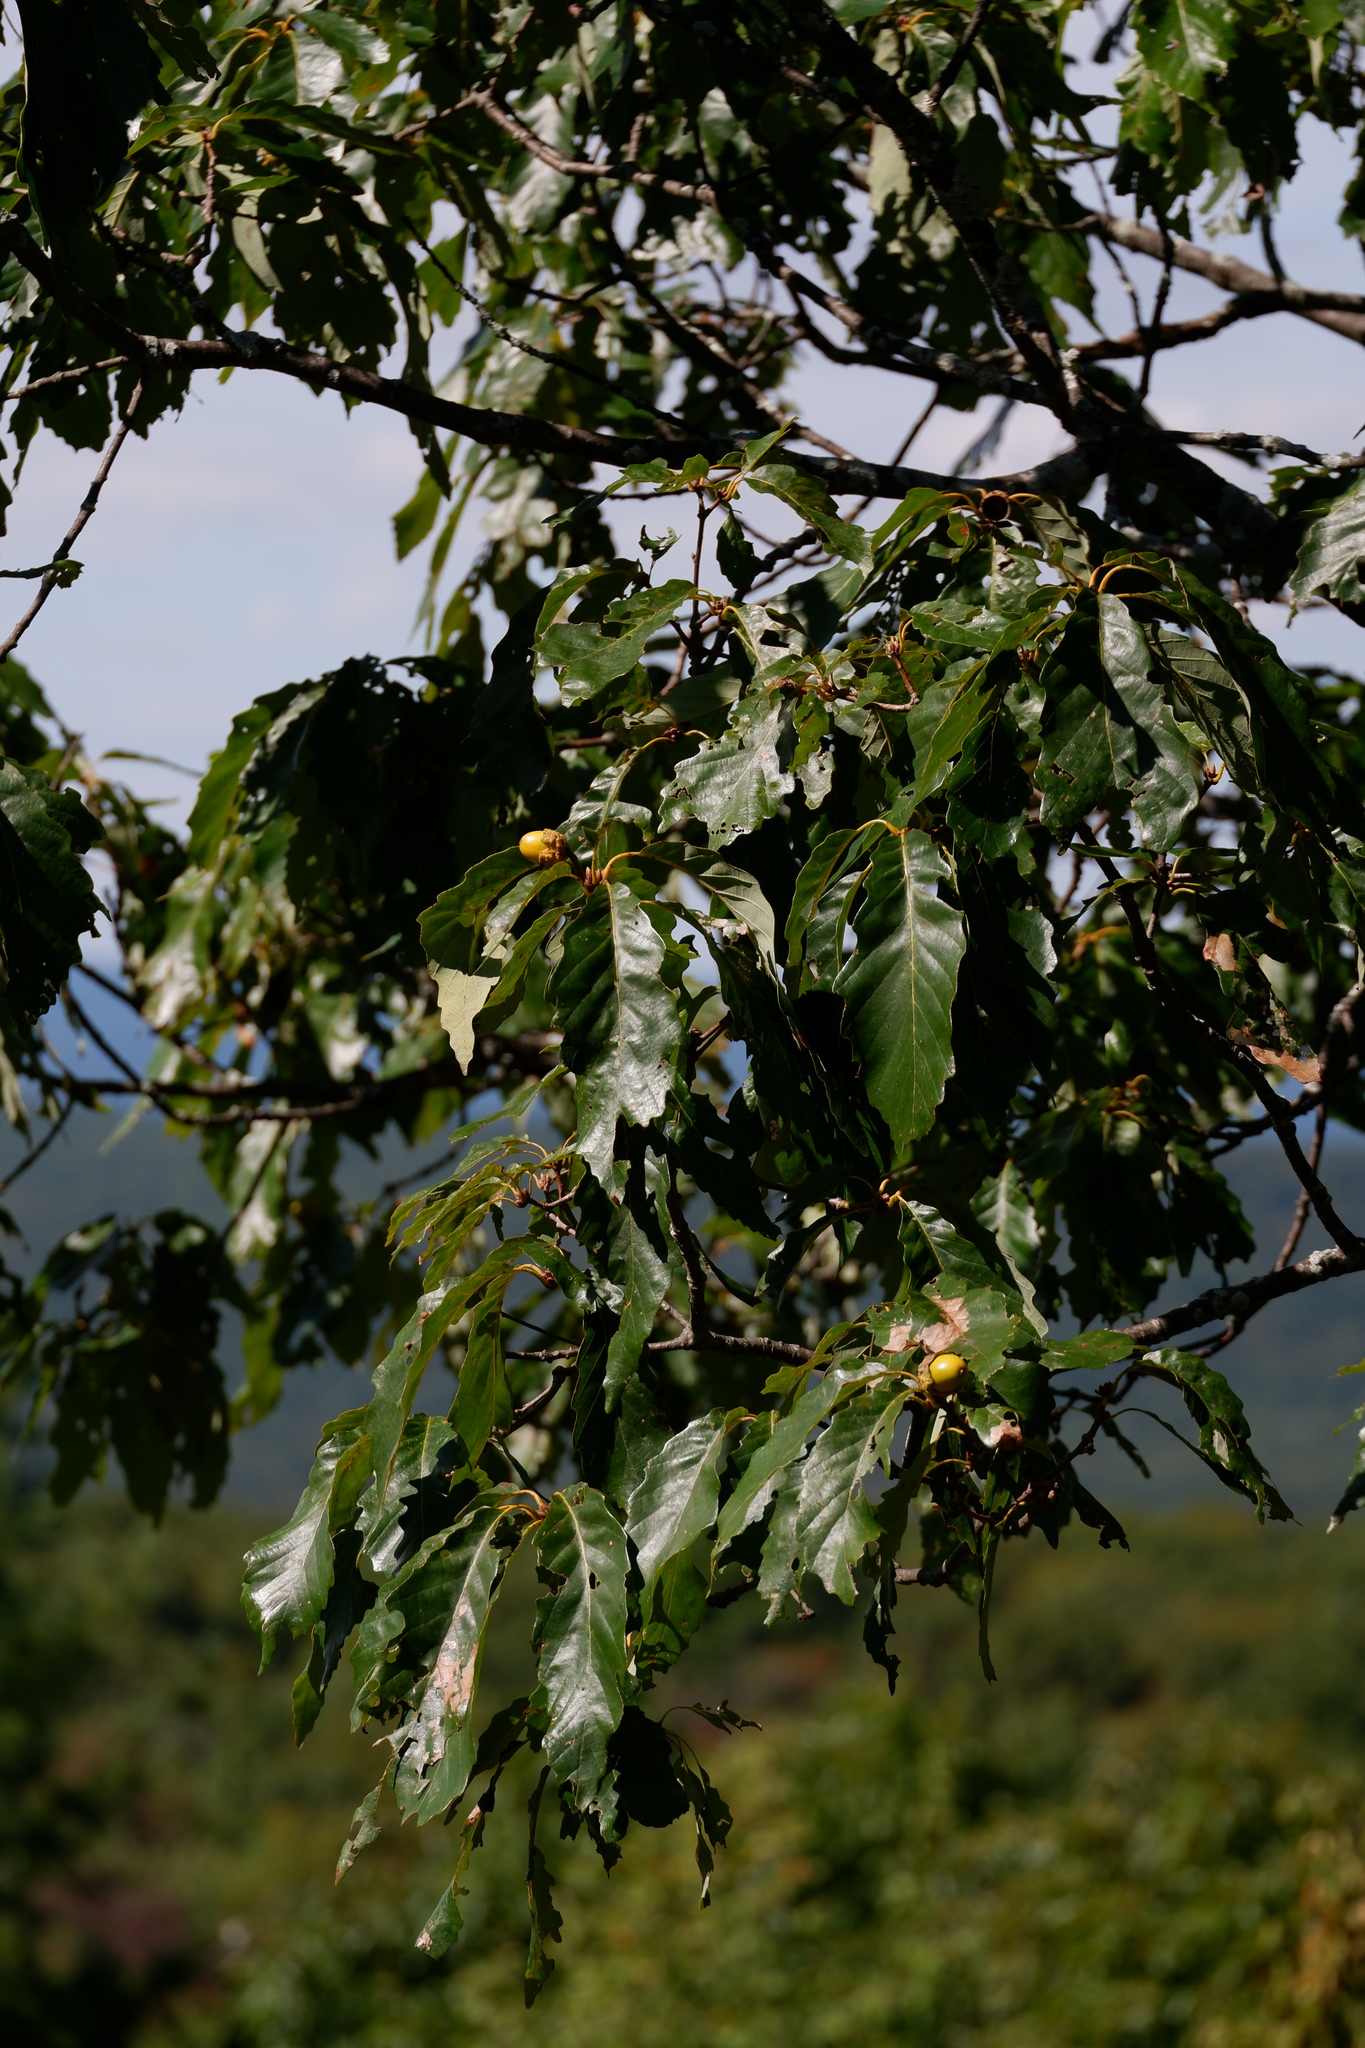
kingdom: Plantae
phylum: Tracheophyta
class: Magnoliopsida
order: Fagales
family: Fagaceae
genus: Quercus
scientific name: Quercus montana
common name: Chestnut oak
